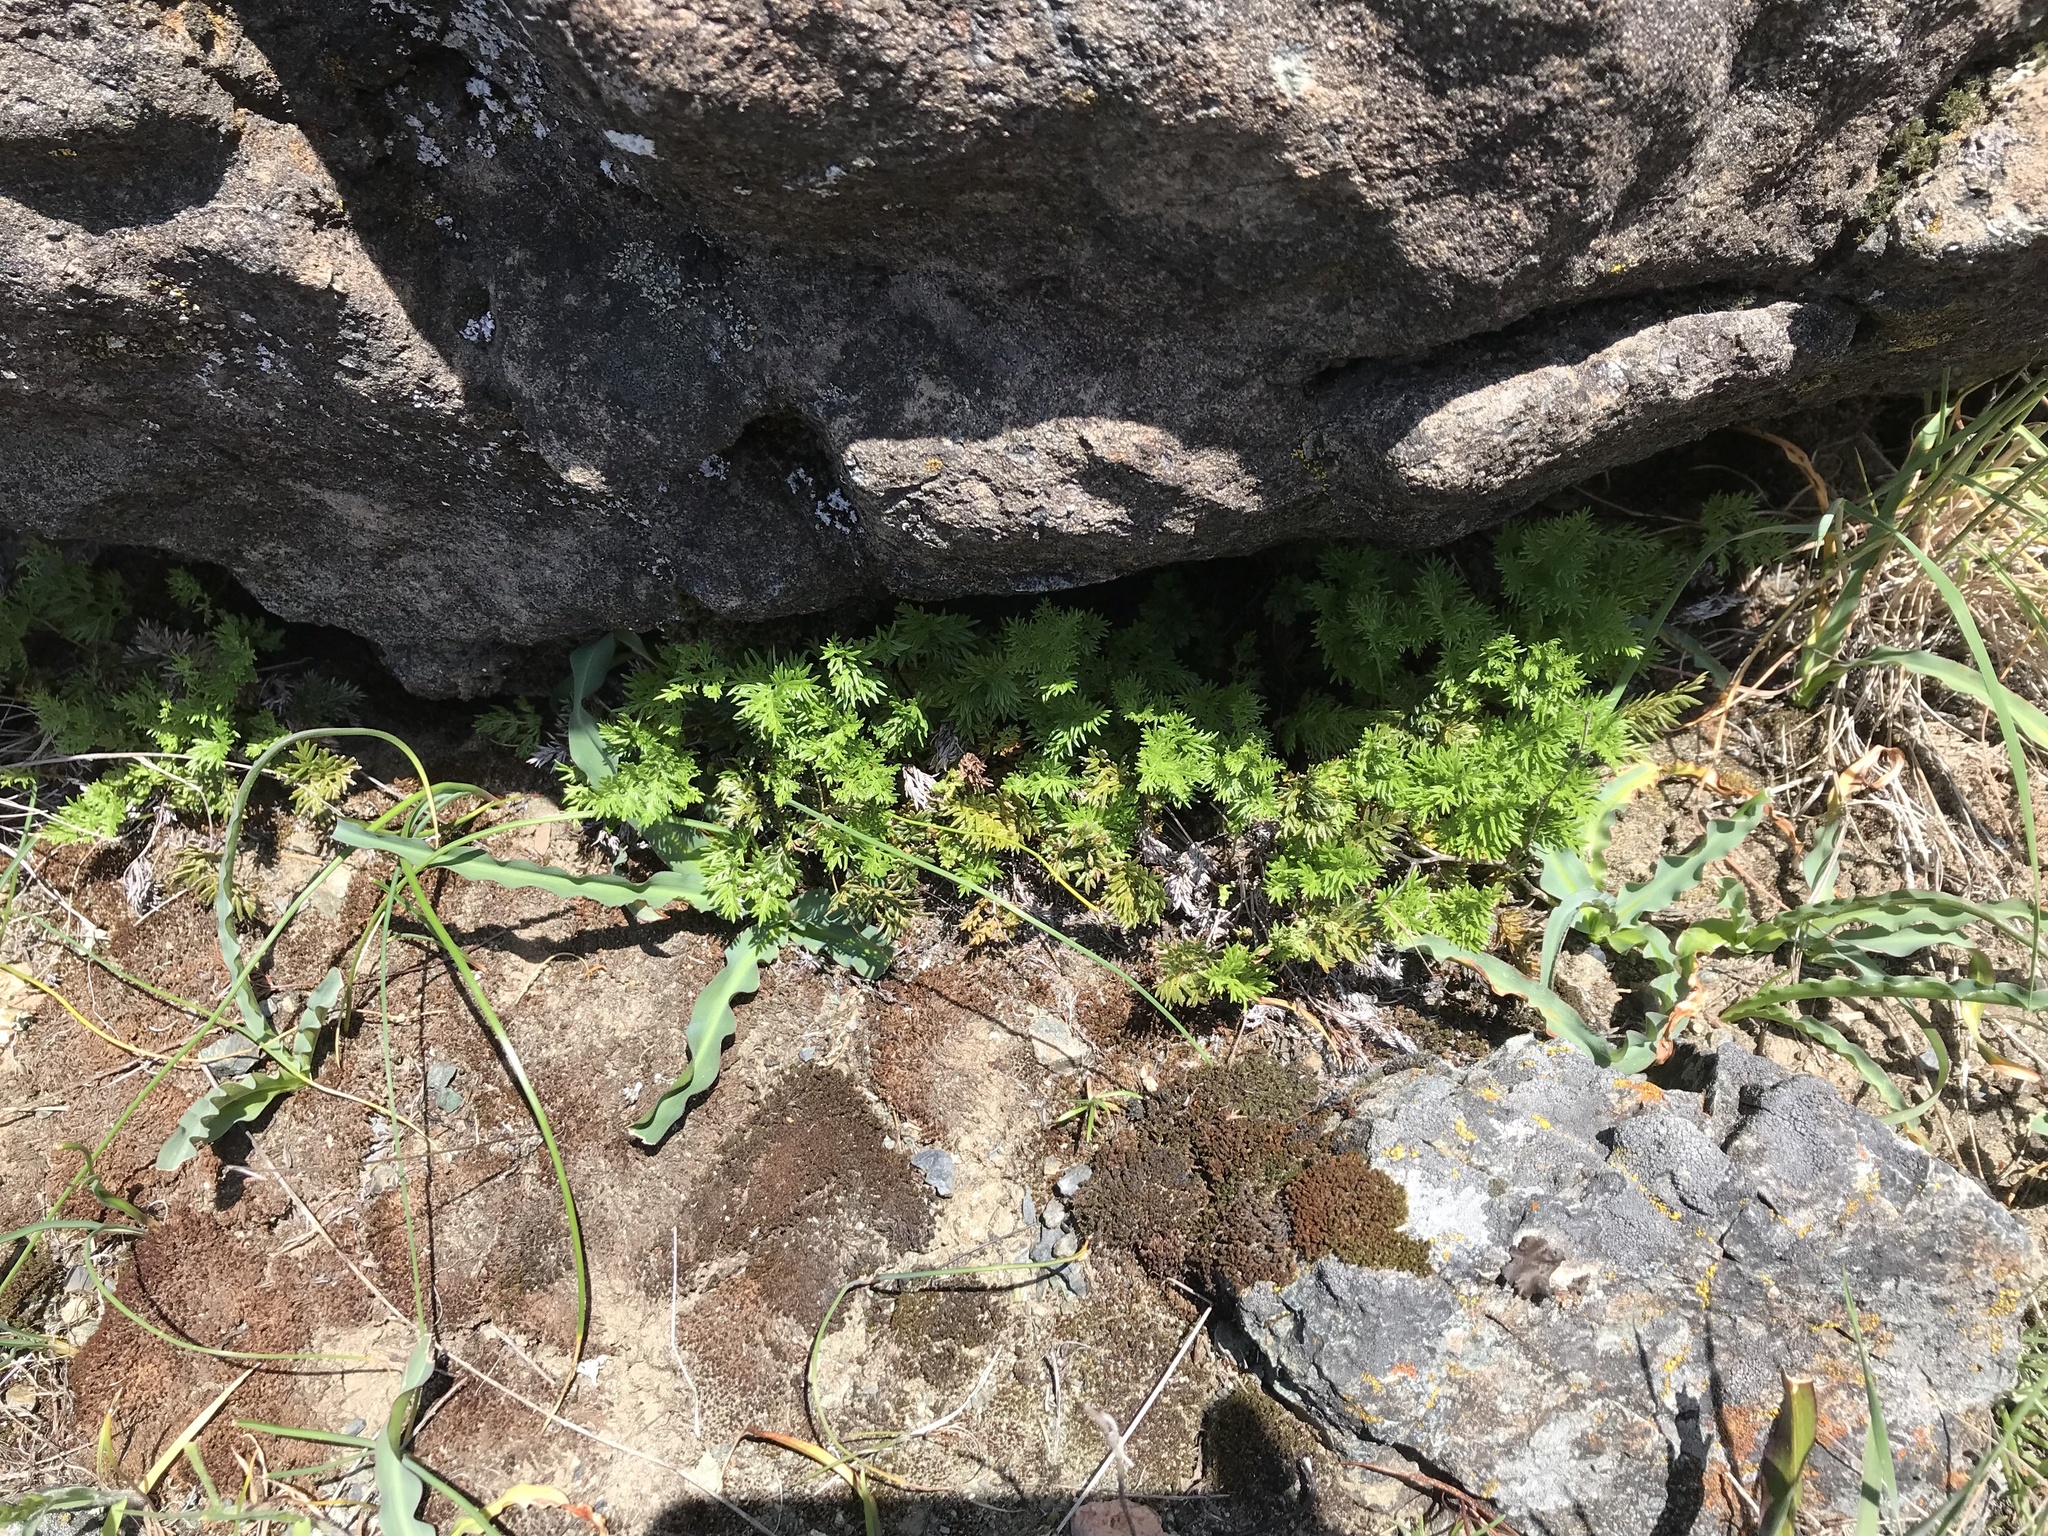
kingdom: Plantae
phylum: Tracheophyta
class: Polypodiopsida
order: Polypodiales
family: Pteridaceae
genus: Aspidotis
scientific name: Aspidotis densa
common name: Indian's dream
